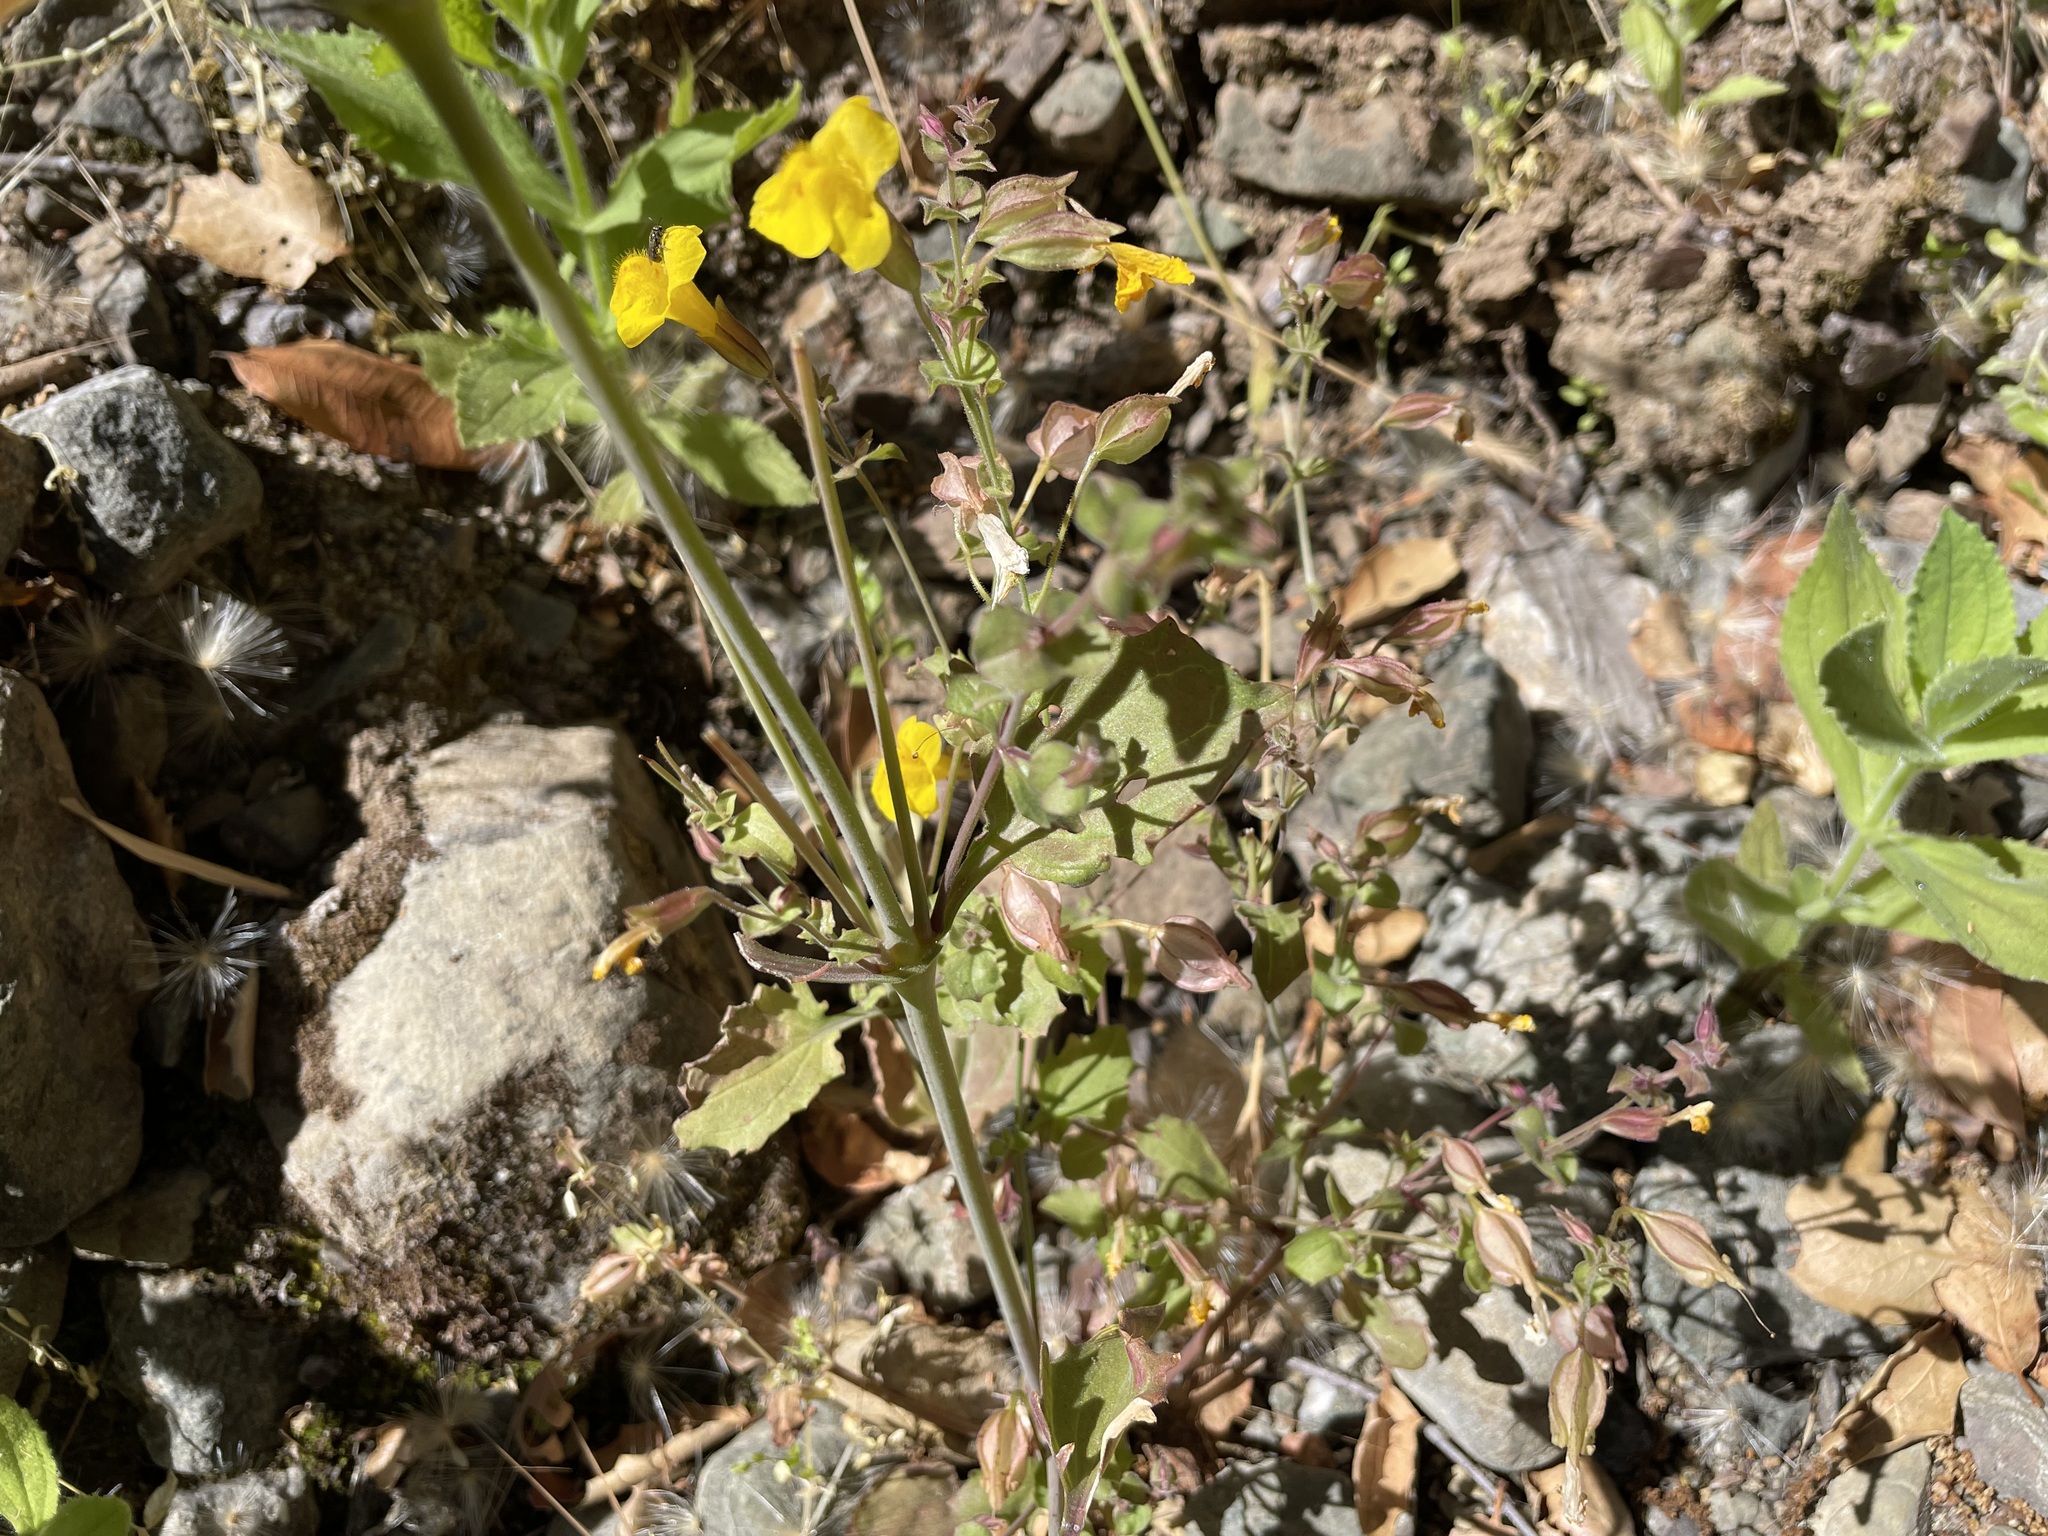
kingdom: Plantae
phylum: Tracheophyta
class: Magnoliopsida
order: Lamiales
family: Phrymaceae
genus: Erythranthe
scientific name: Erythranthe guttata
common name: Monkeyflower
